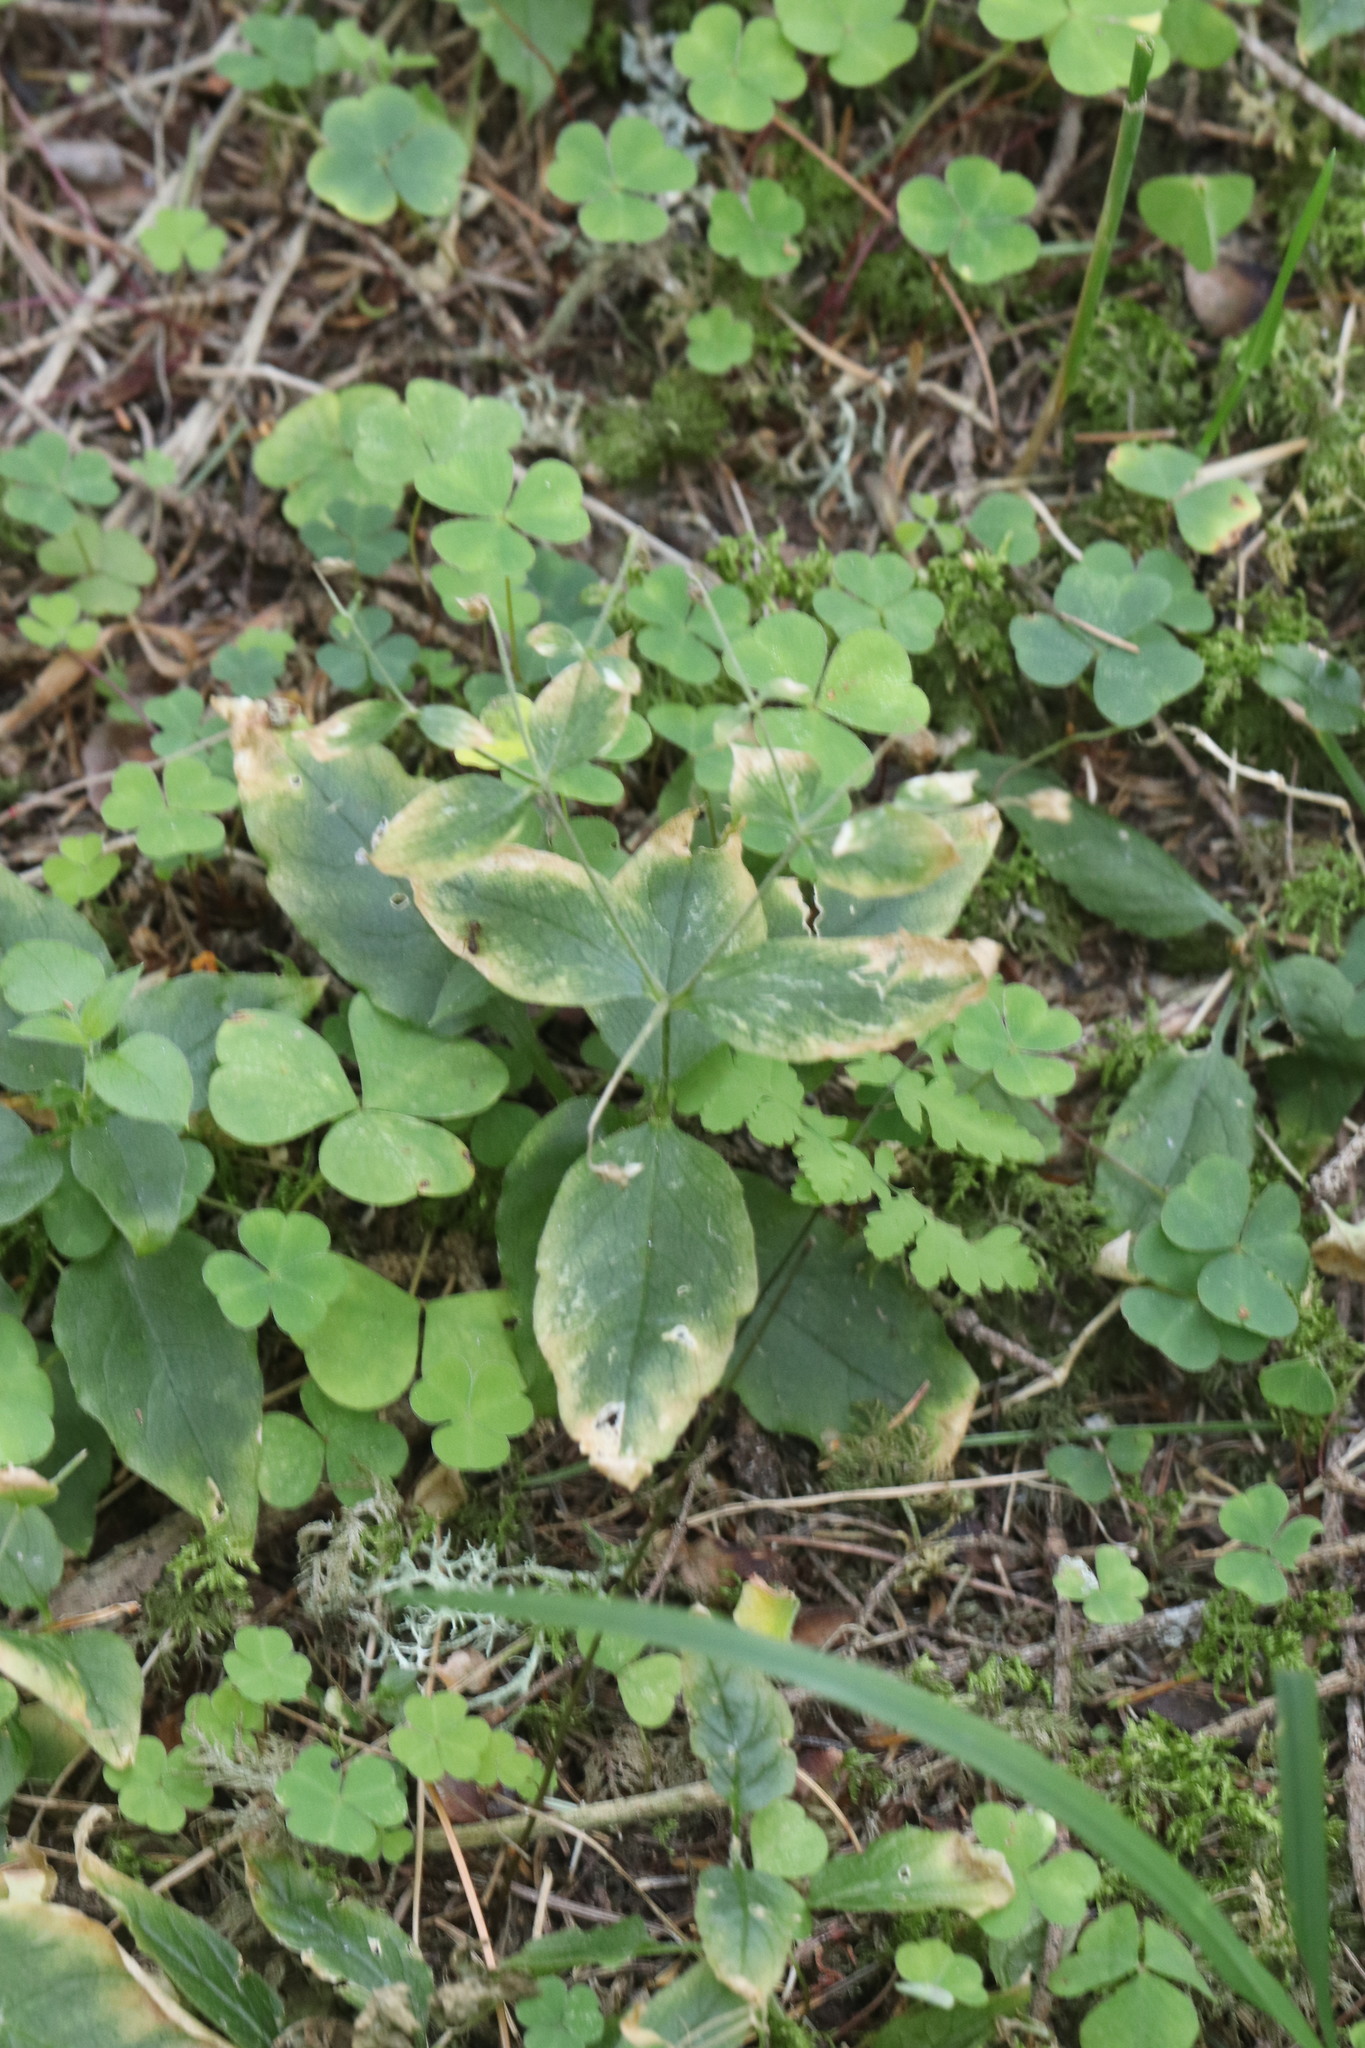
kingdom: Plantae
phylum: Tracheophyta
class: Magnoliopsida
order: Caryophyllales
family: Caryophyllaceae
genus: Stellaria
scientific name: Stellaria bungeana
